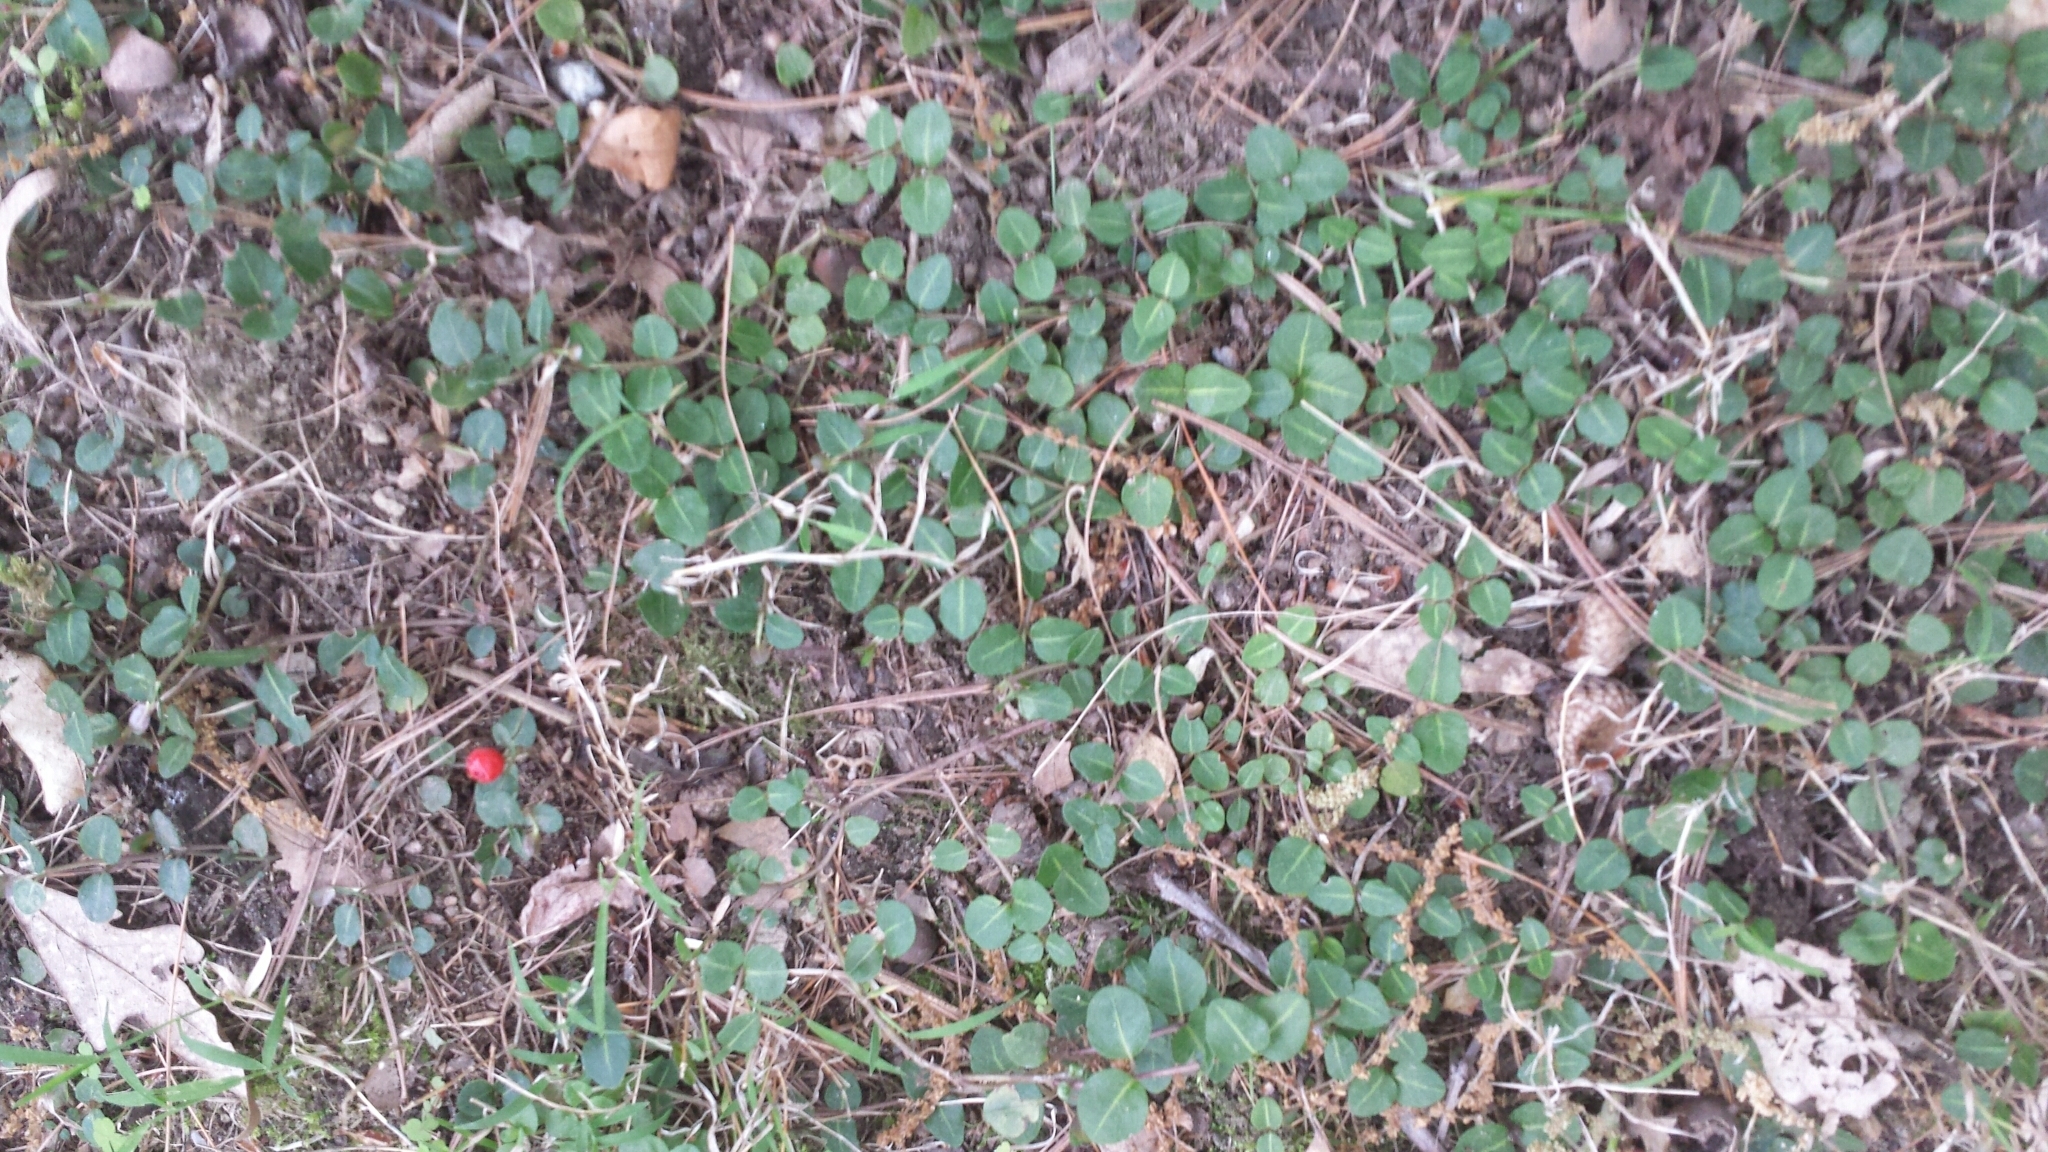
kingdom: Plantae
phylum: Tracheophyta
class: Magnoliopsida
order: Gentianales
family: Rubiaceae
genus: Mitchella
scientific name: Mitchella repens
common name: Partridge-berry
